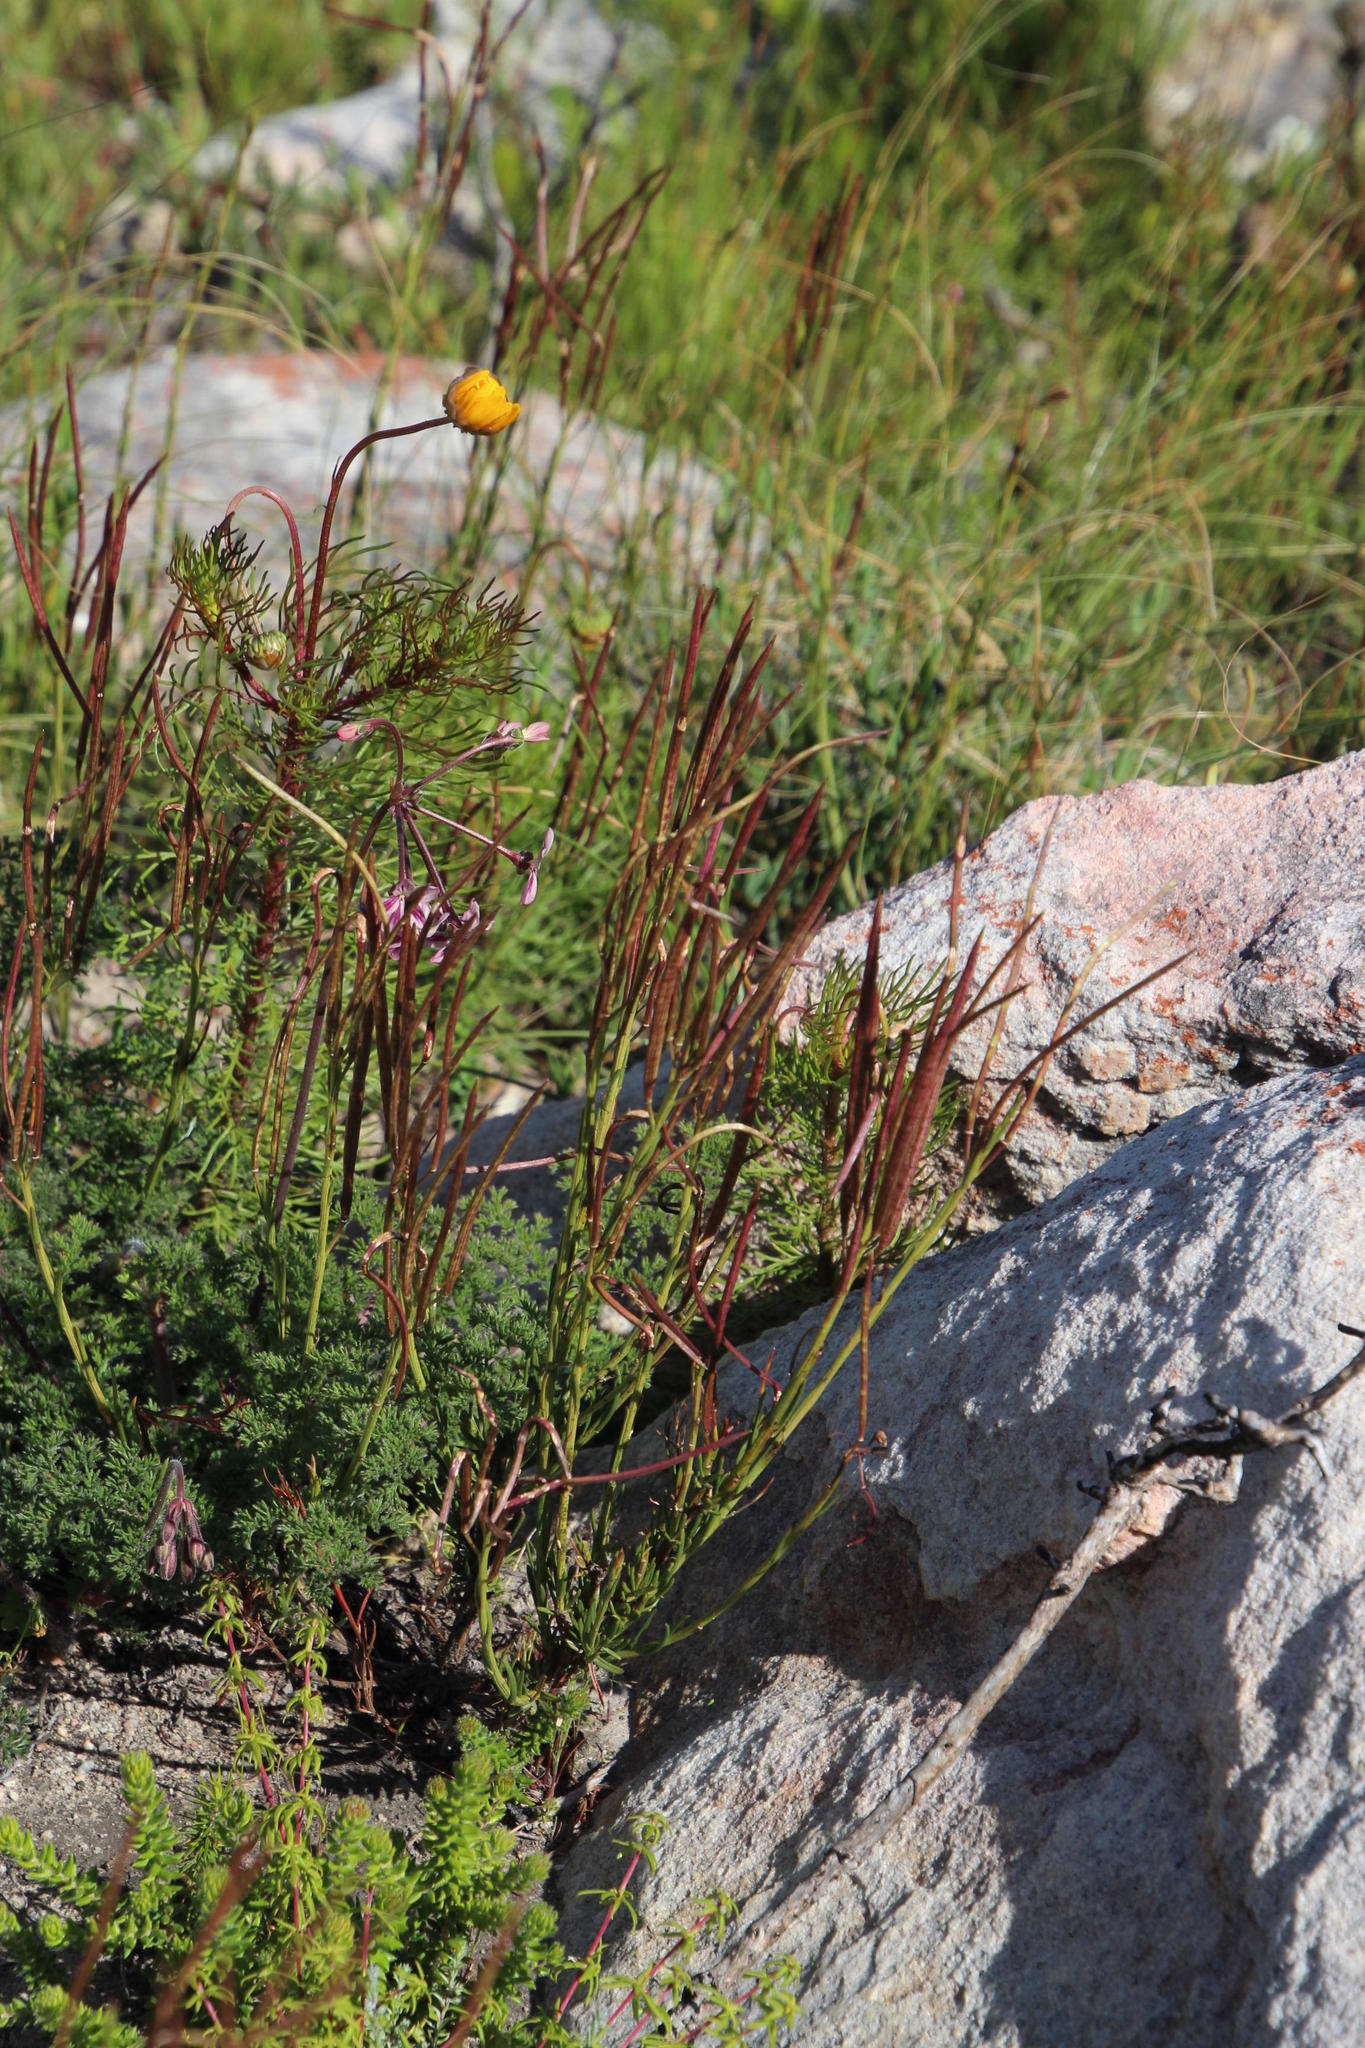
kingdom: Plantae
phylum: Tracheophyta
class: Magnoliopsida
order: Brassicales
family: Brassicaceae
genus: Heliophila
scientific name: Heliophila scoparia
